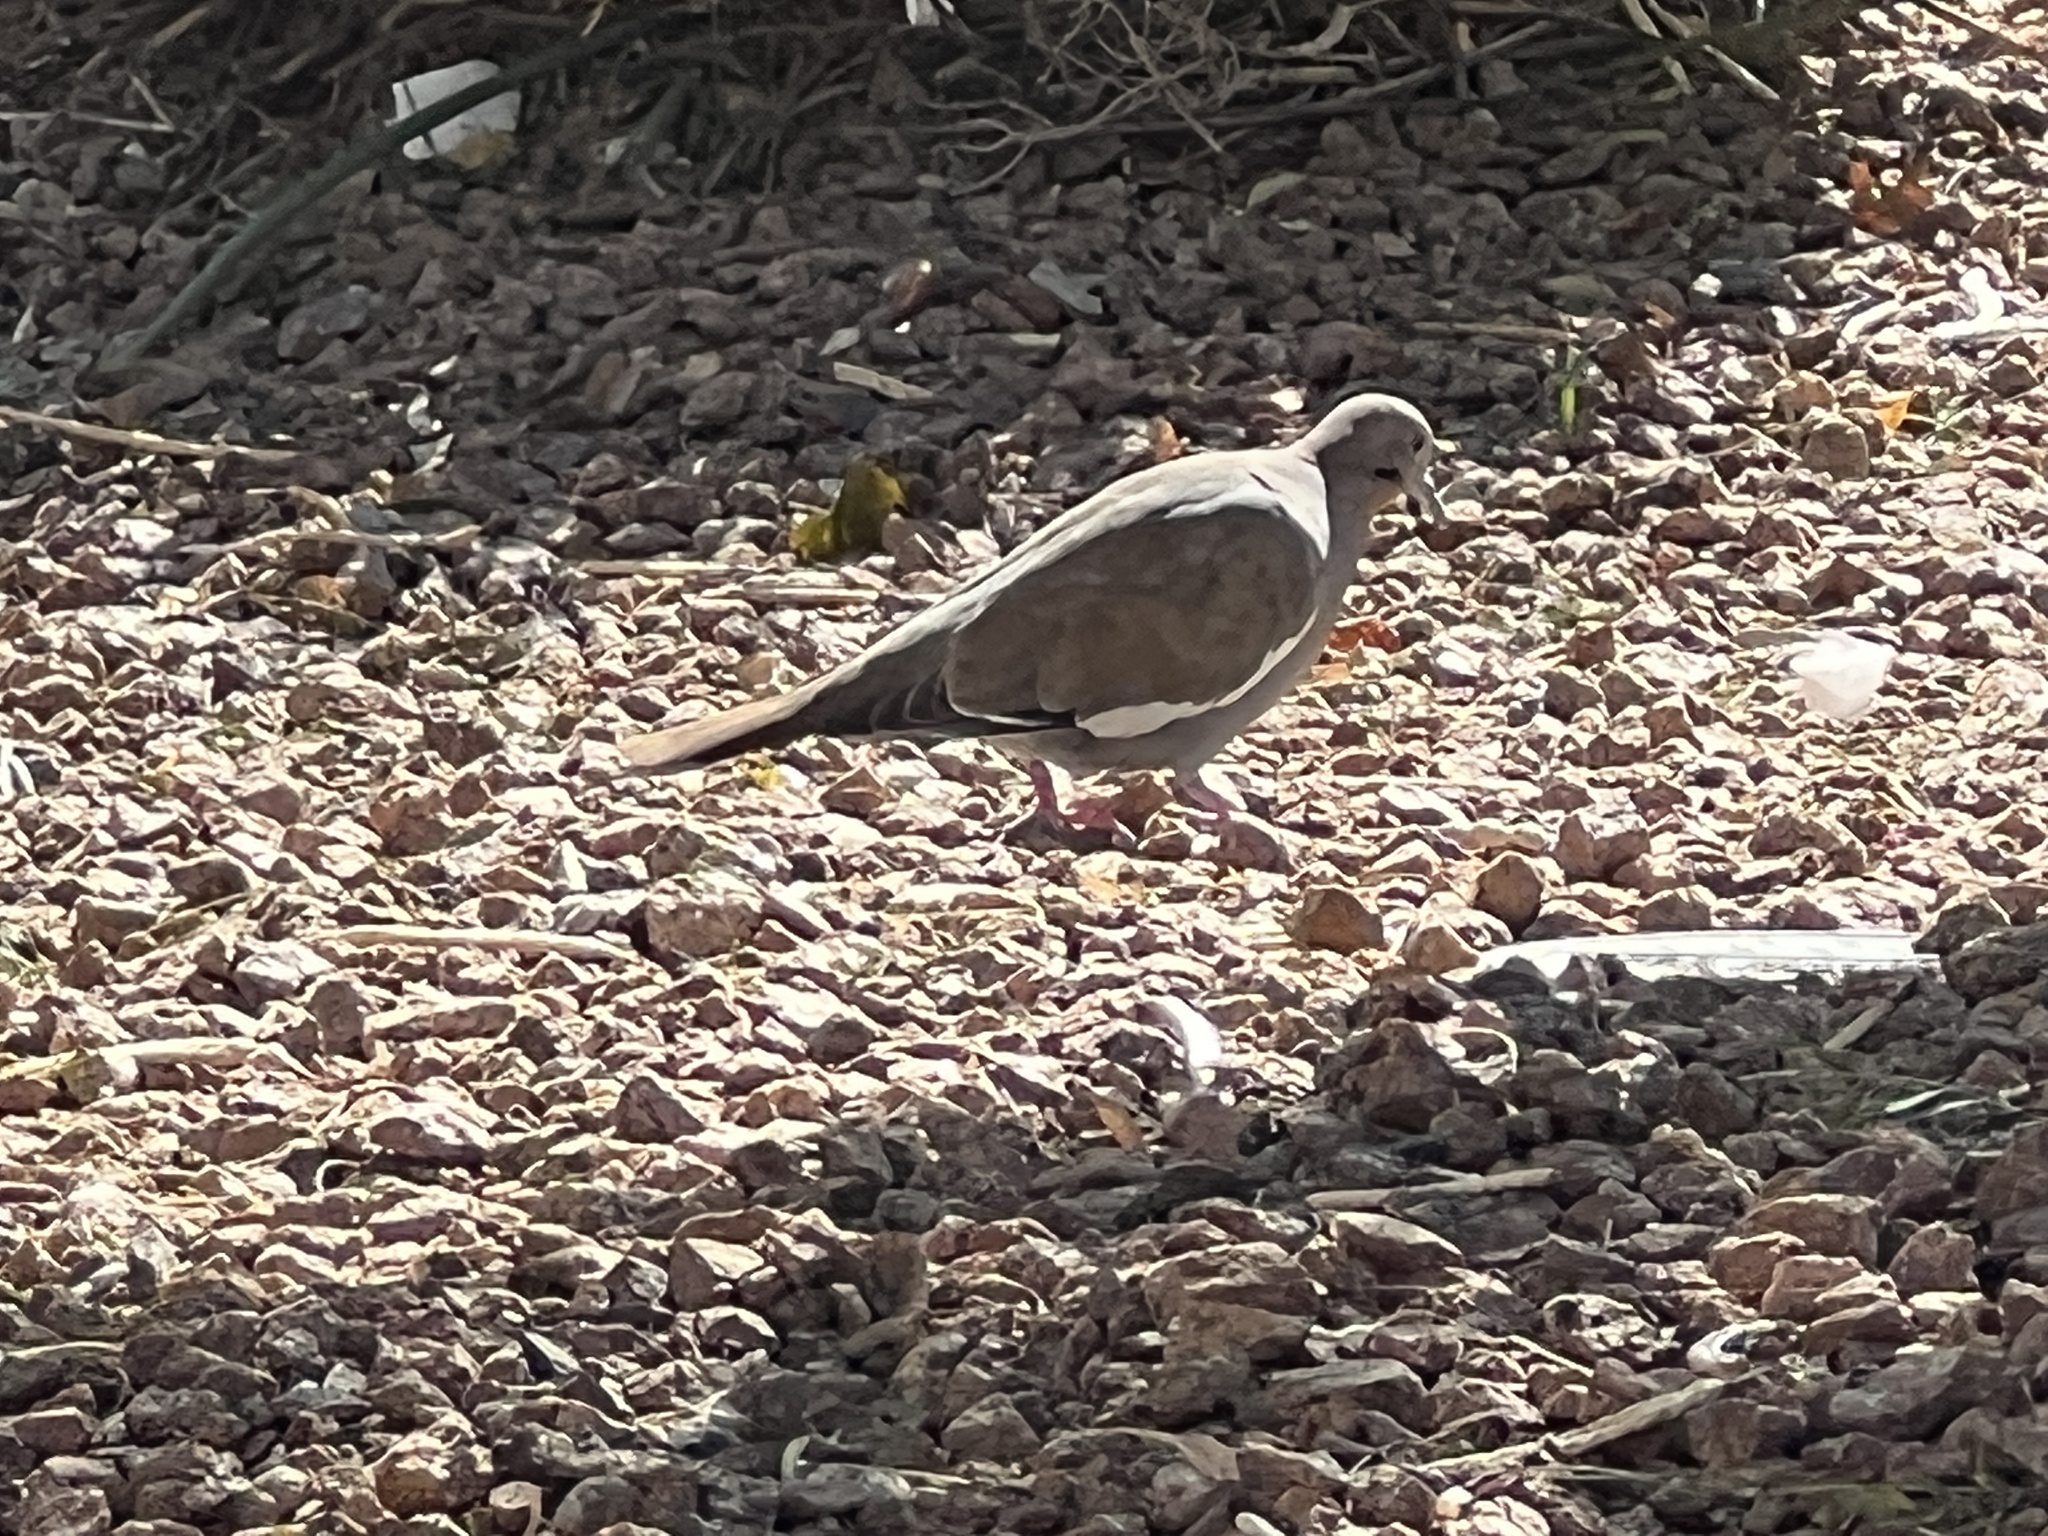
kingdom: Animalia
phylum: Chordata
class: Aves
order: Columbiformes
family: Columbidae
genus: Zenaida
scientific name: Zenaida asiatica
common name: White-winged dove
